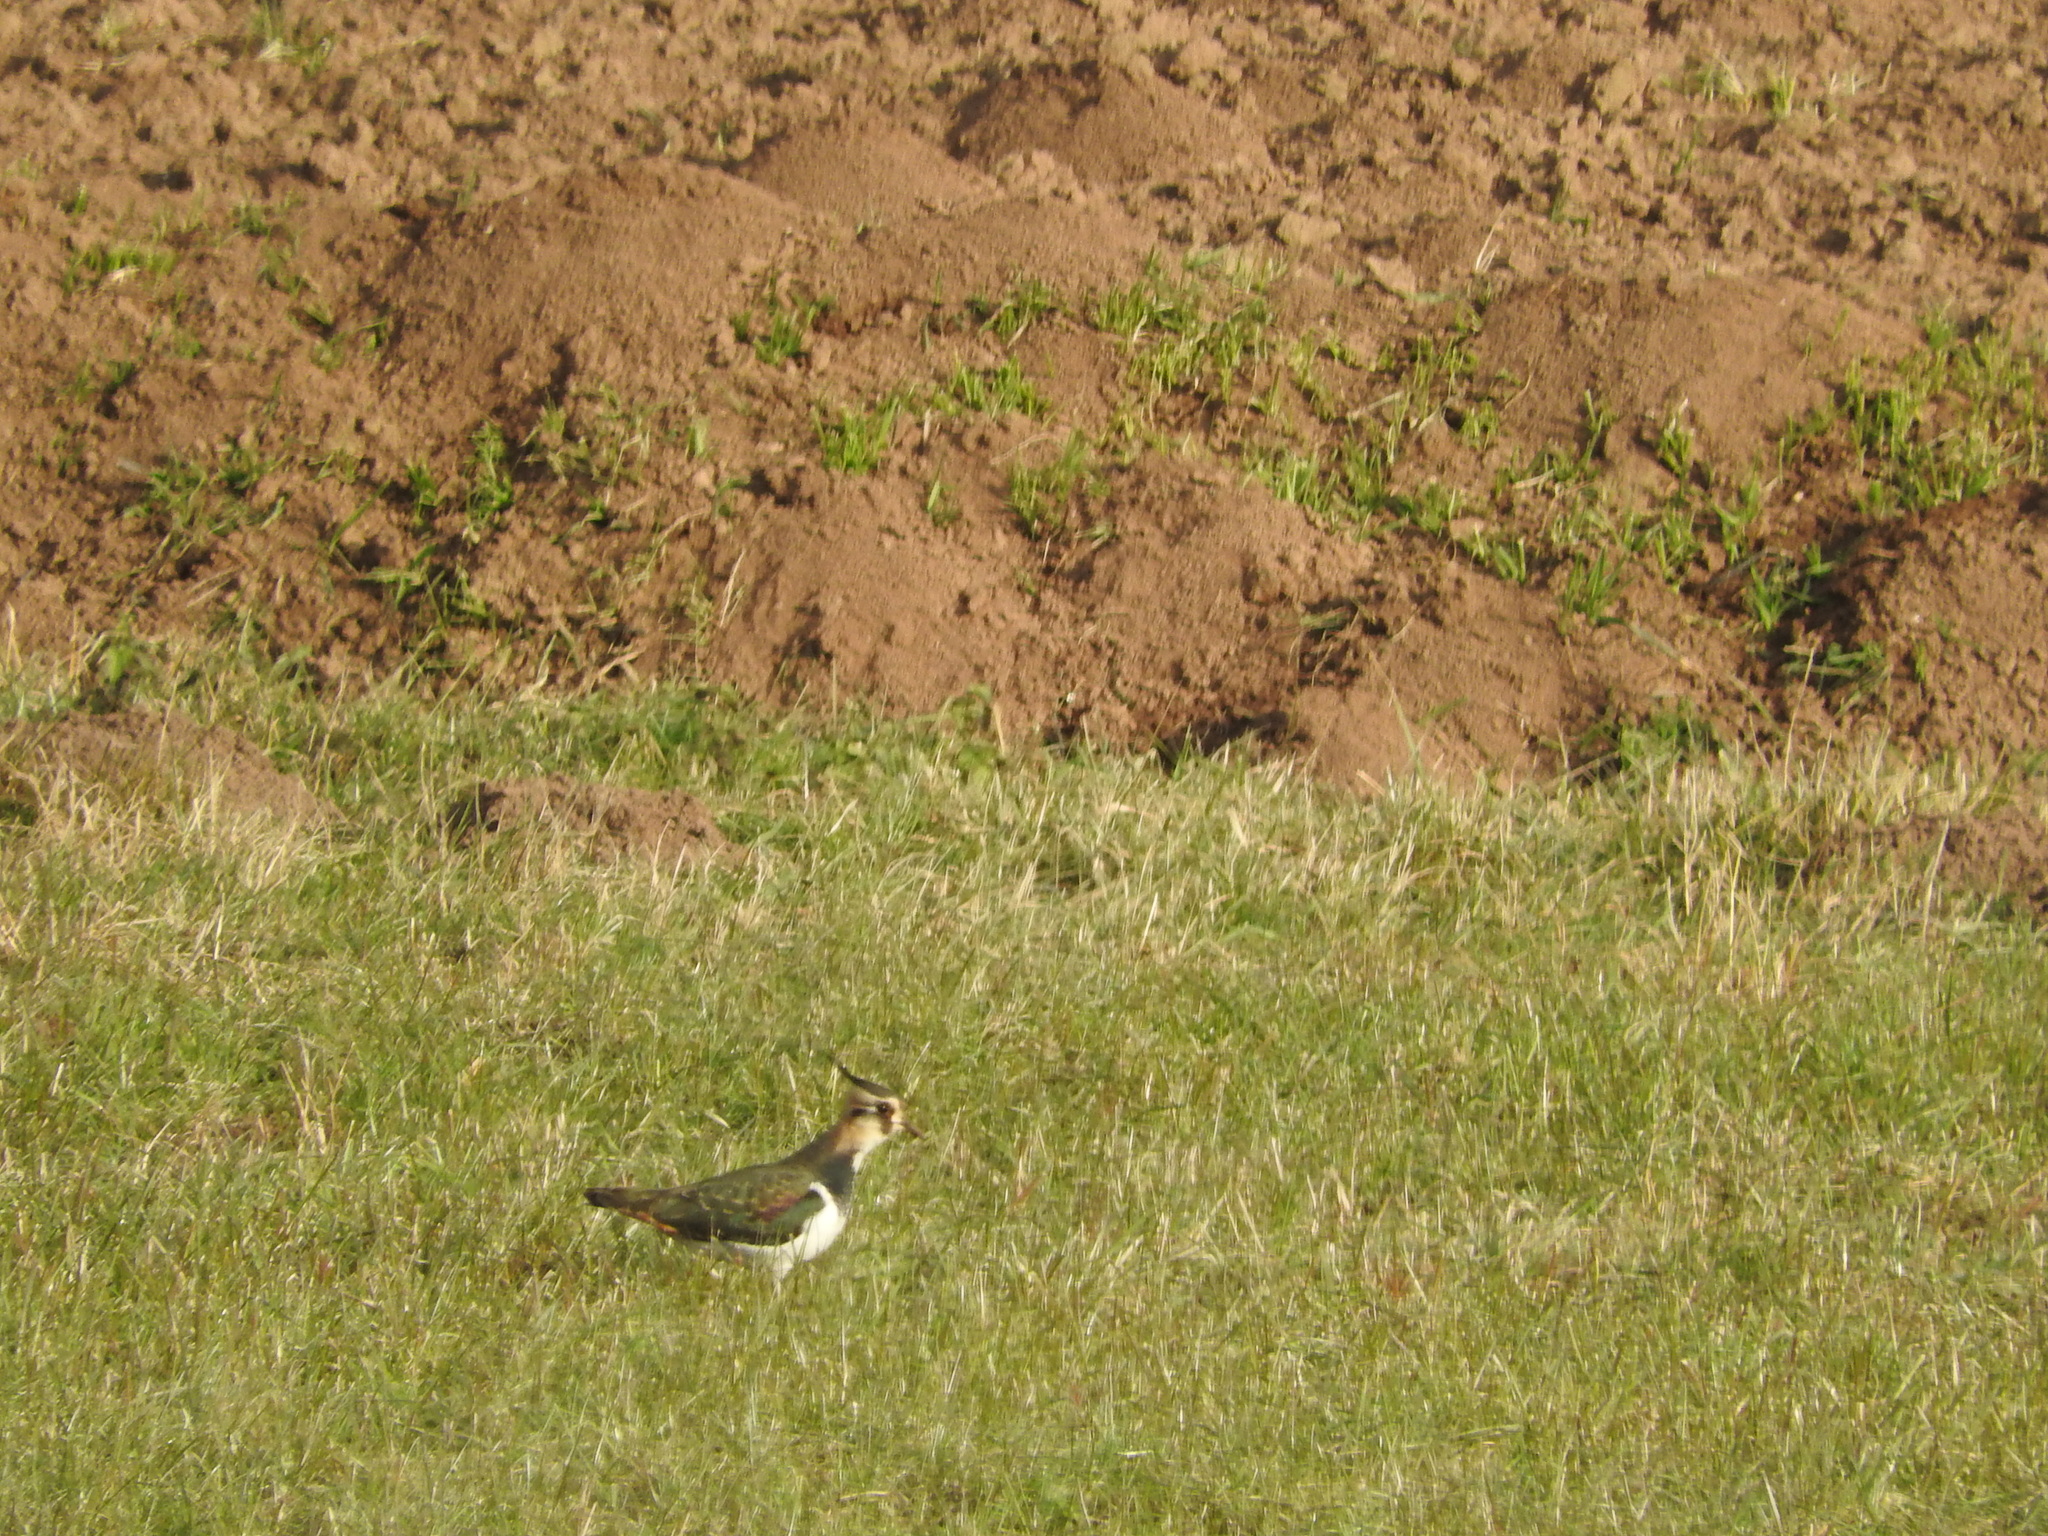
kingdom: Animalia
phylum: Chordata
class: Aves
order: Charadriiformes
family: Charadriidae
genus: Vanellus
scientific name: Vanellus vanellus
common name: Northern lapwing
